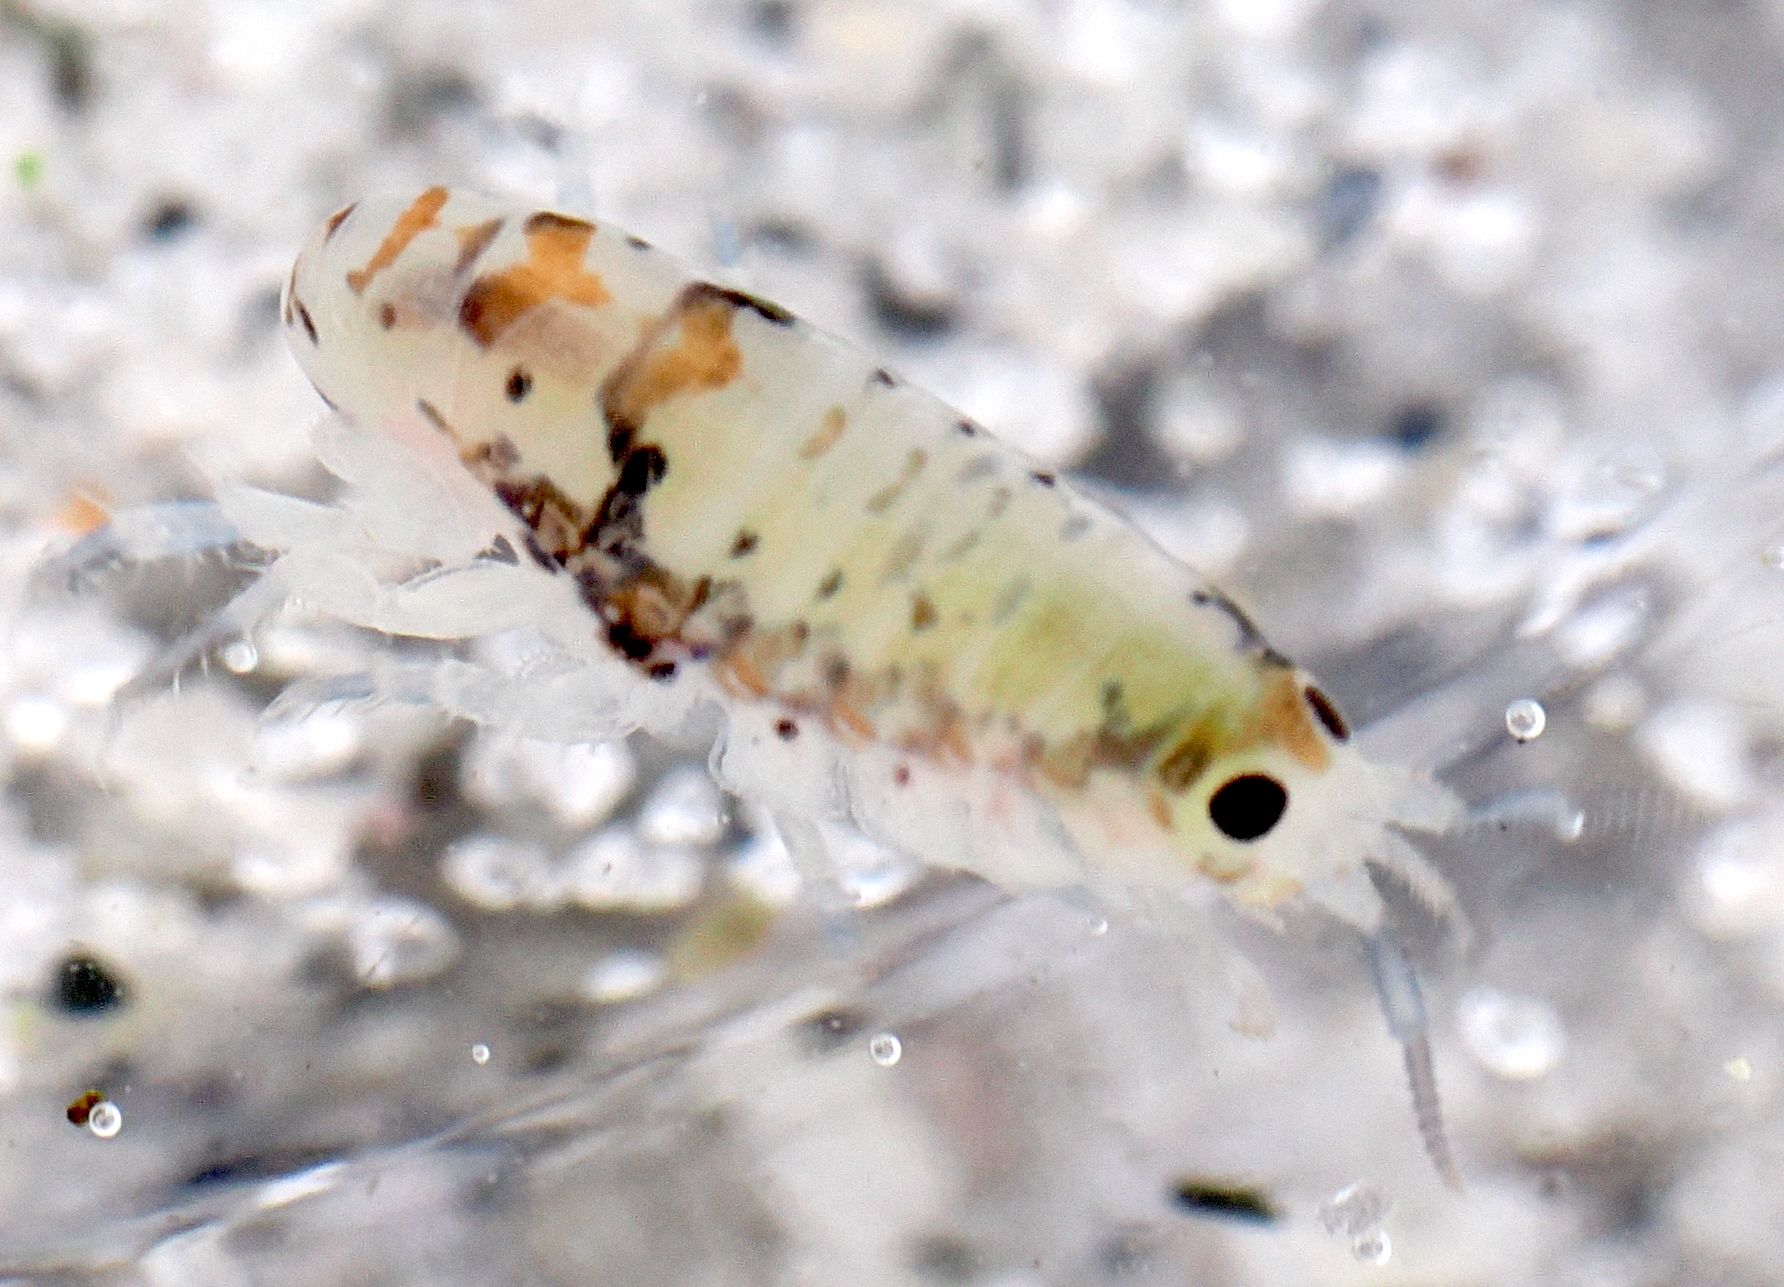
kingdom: Animalia
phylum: Arthropoda
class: Malacostraca
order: Amphipoda
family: Talitridae
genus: Megalorchestia
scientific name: Megalorchestia benedicti
